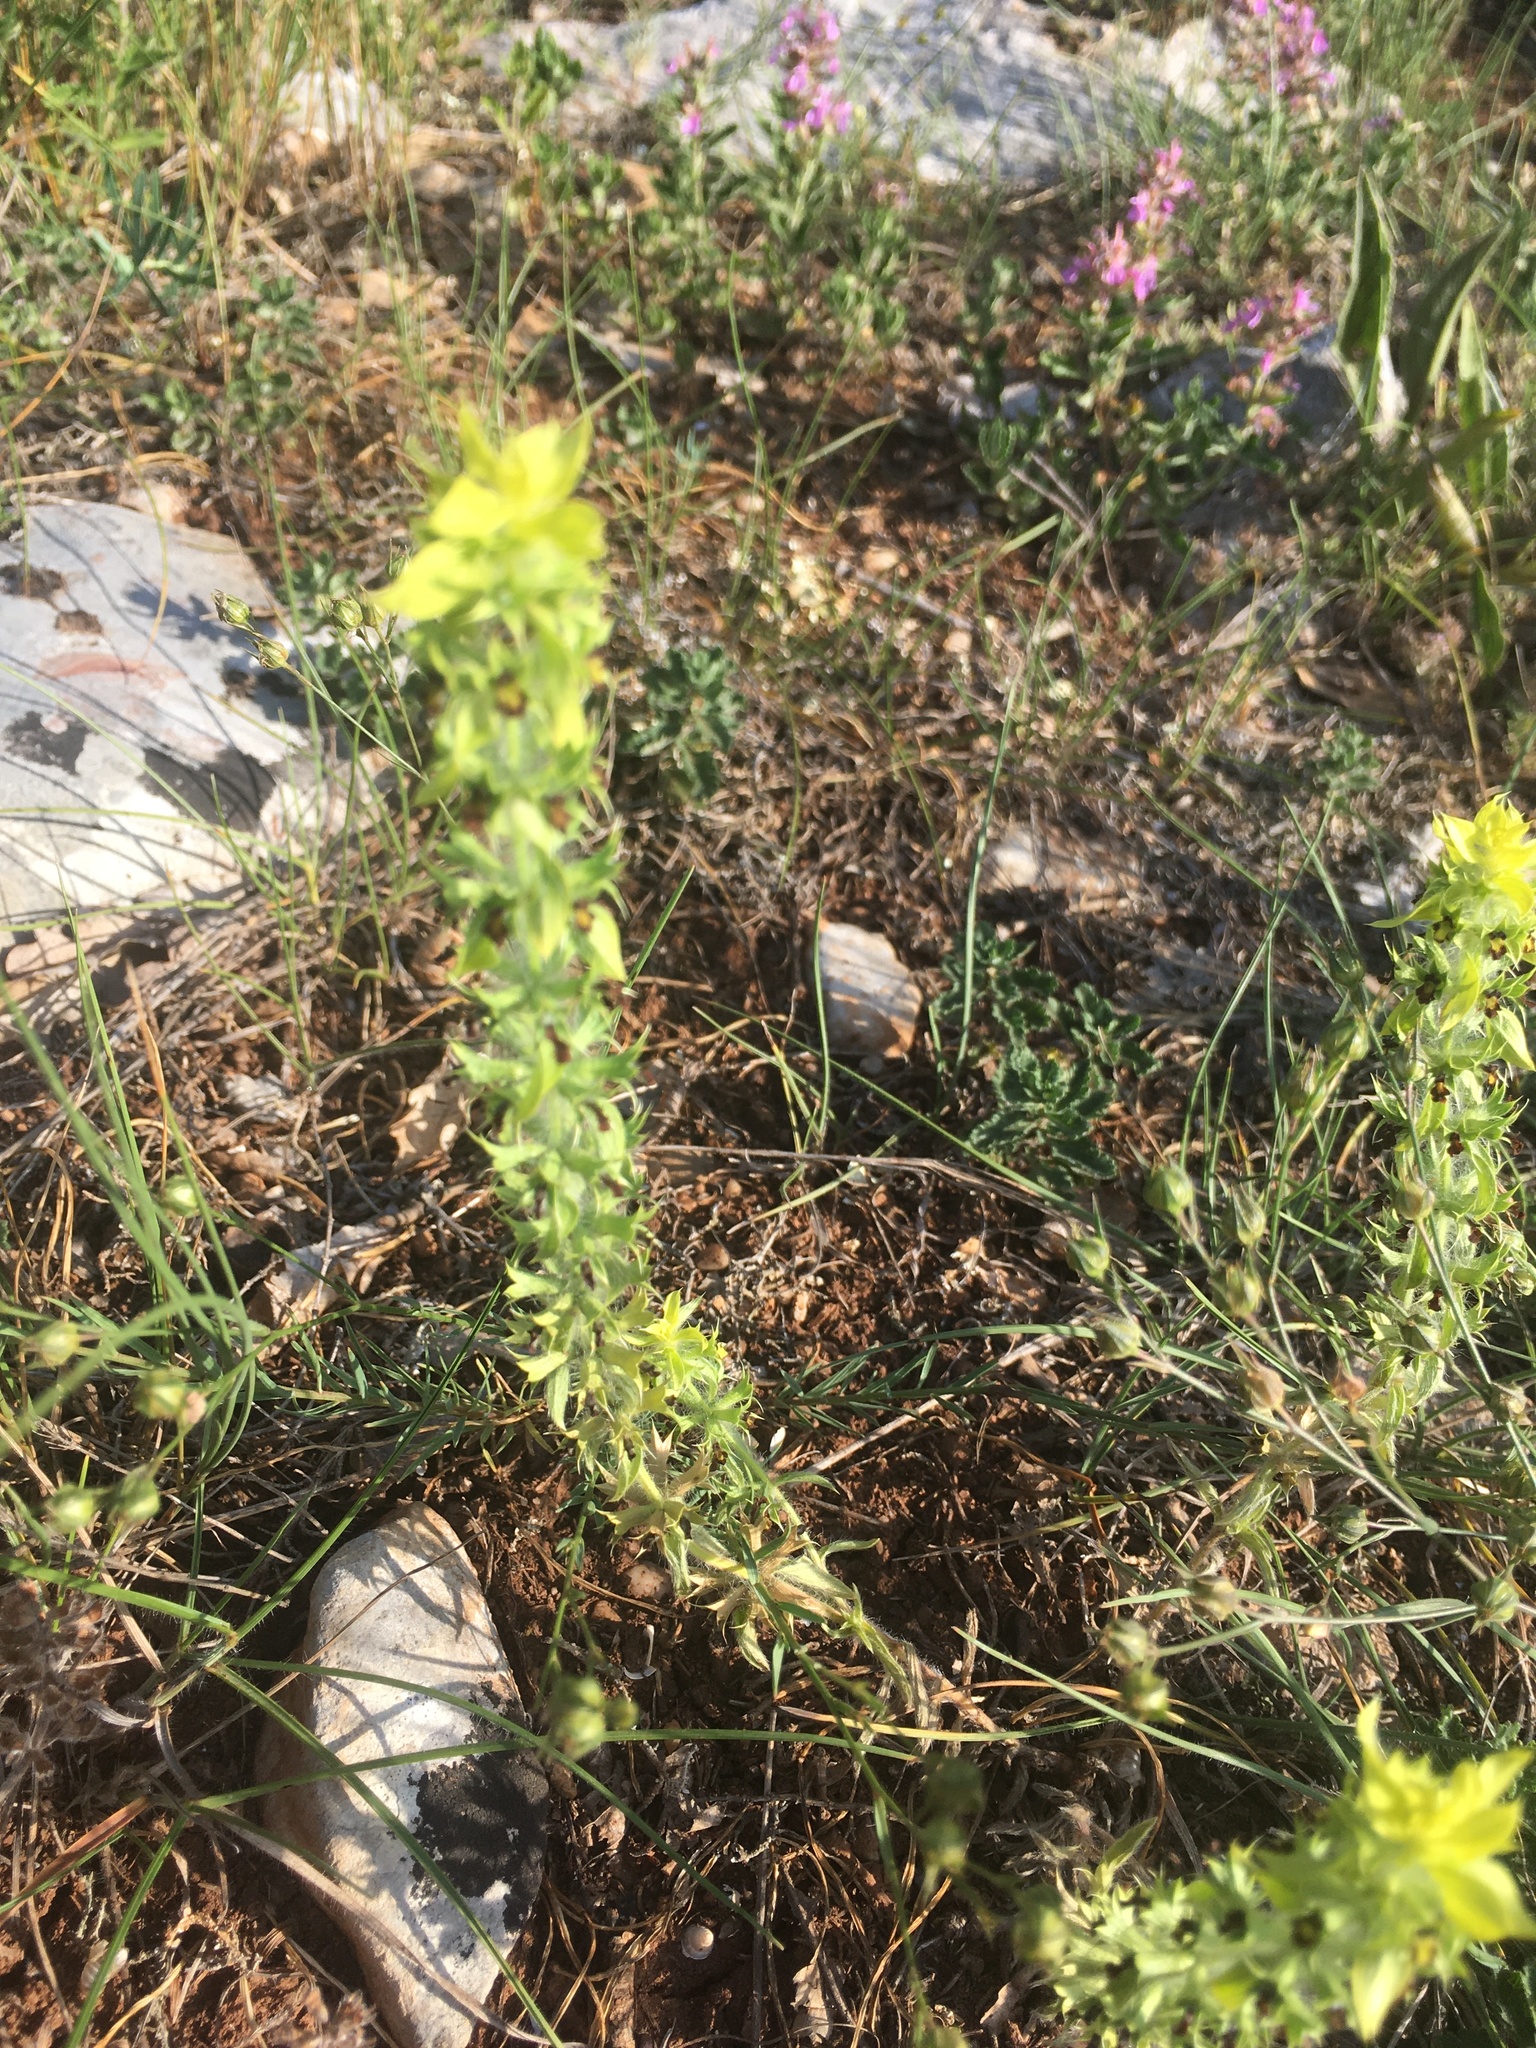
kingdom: Plantae
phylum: Tracheophyta
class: Magnoliopsida
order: Lamiales
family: Lamiaceae
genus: Sideritis
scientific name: Sideritis montana
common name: Mountain ironwort
